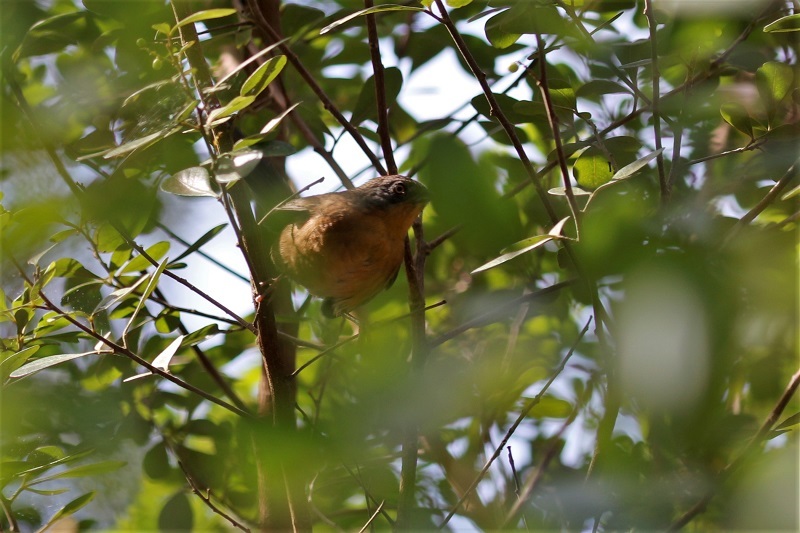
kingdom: Animalia
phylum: Chordata
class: Aves
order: Passeriformes
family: Macrosphenidae
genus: Cryptillas
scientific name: Cryptillas victorini
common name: Victorin's warbler
